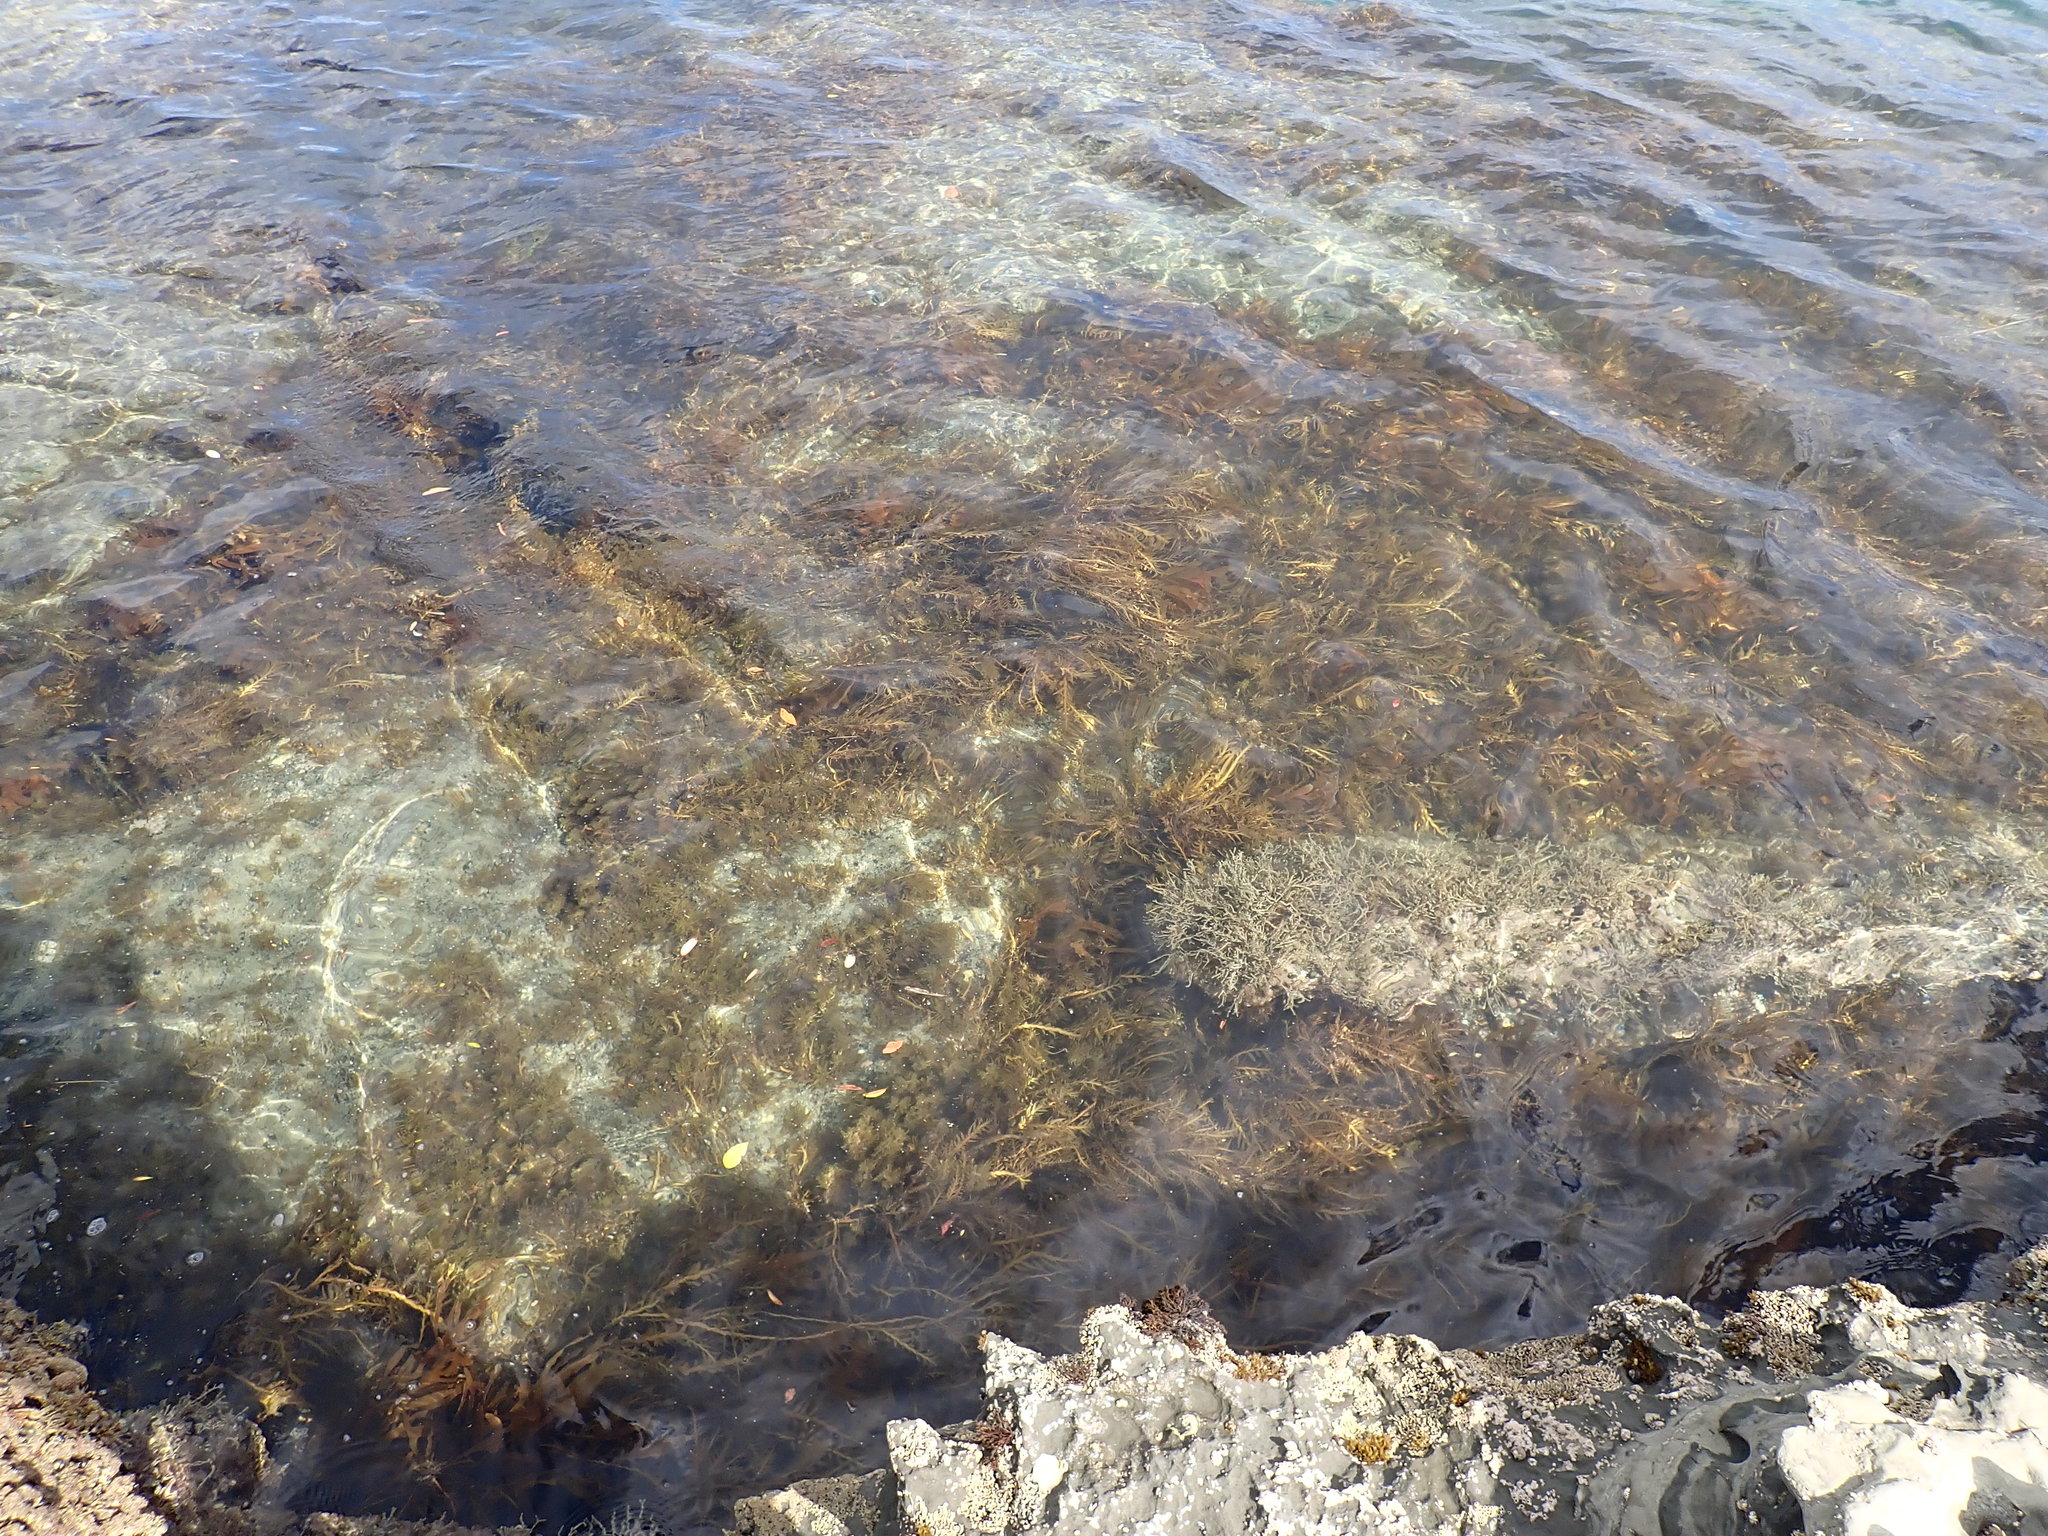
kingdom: Chromista
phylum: Ochrophyta
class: Phaeophyceae
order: Fucales
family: Sargassaceae
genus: Carpophyllum
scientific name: Carpophyllum maschalocarpum
